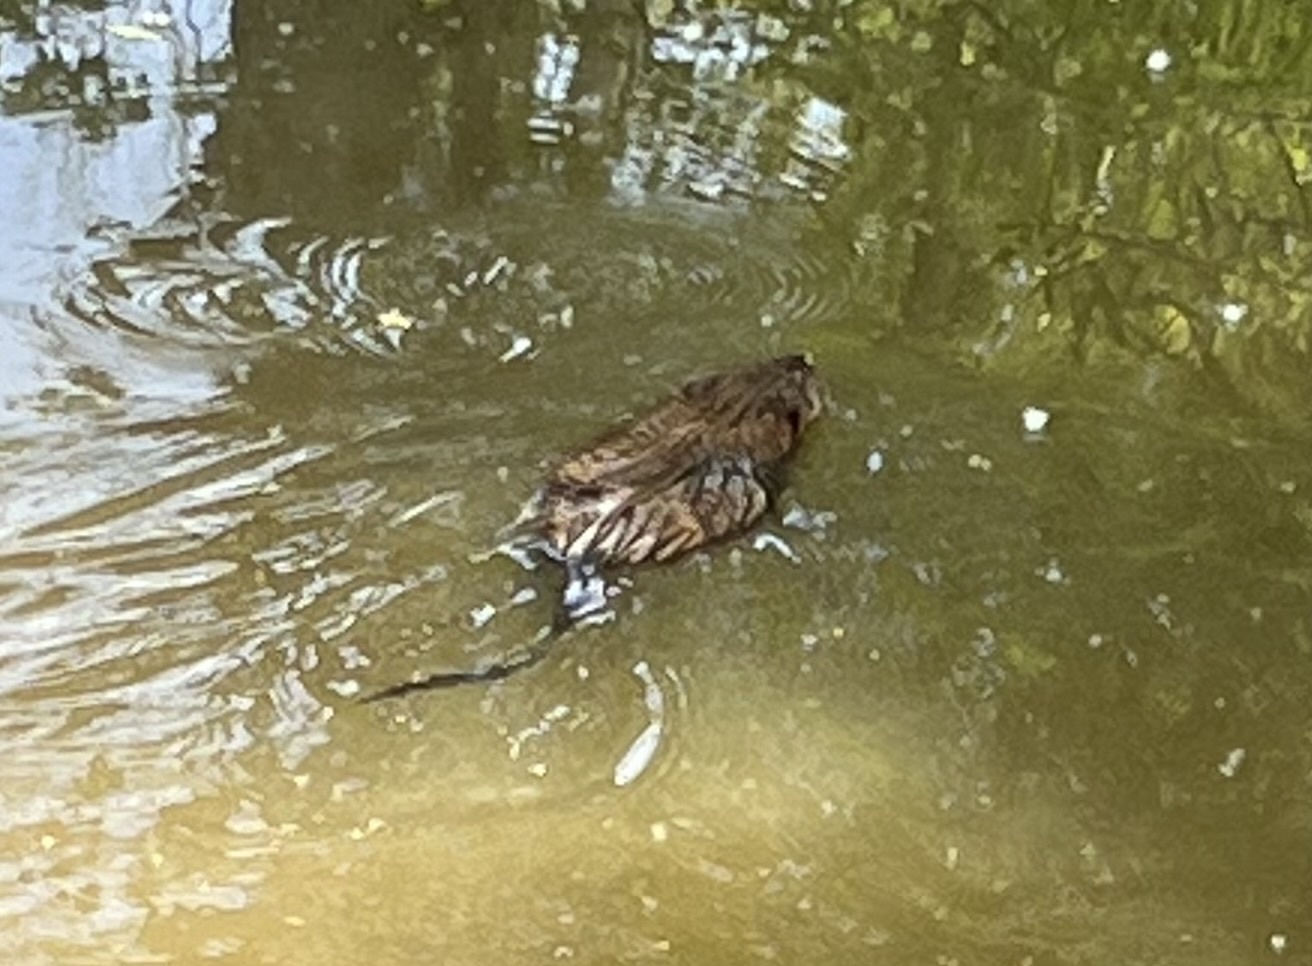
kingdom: Animalia
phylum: Chordata
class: Mammalia
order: Rodentia
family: Cricetidae
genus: Ondatra
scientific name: Ondatra zibethicus
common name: Muskrat
